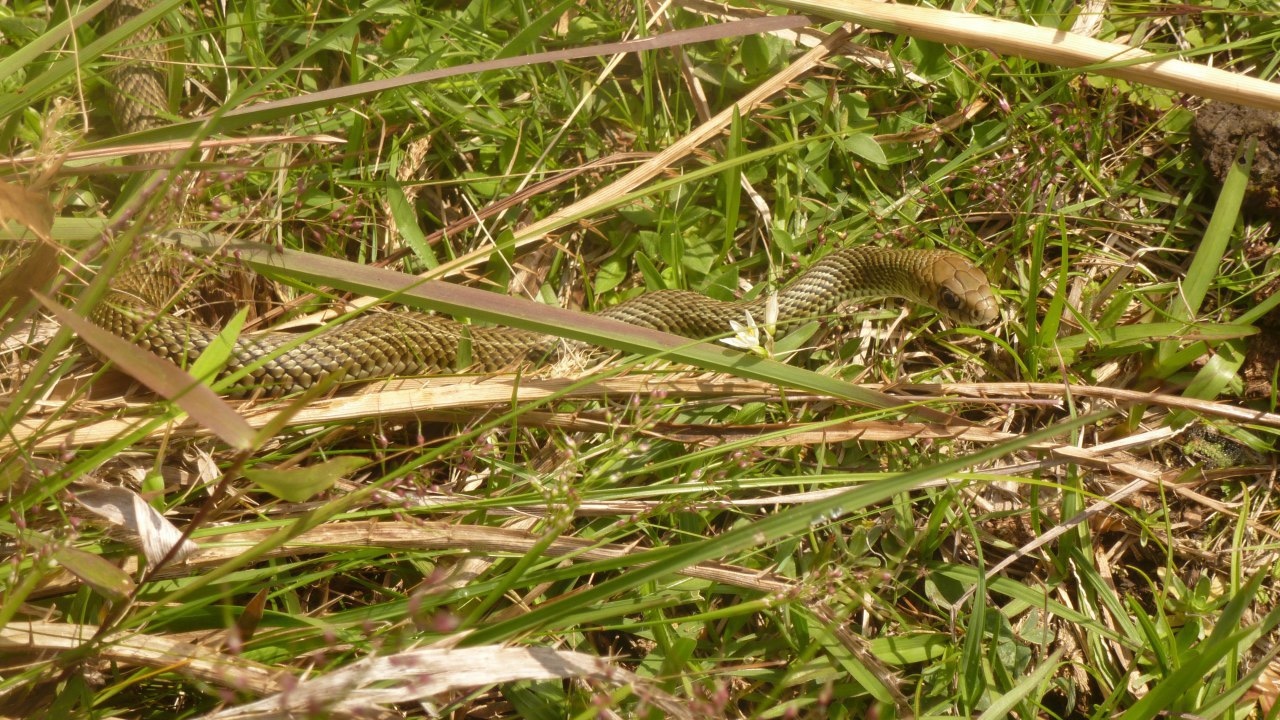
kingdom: Animalia
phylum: Chordata
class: Squamata
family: Colubridae
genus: Philodryas
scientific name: Philodryas patagoniensis
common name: Patagonia green racer
